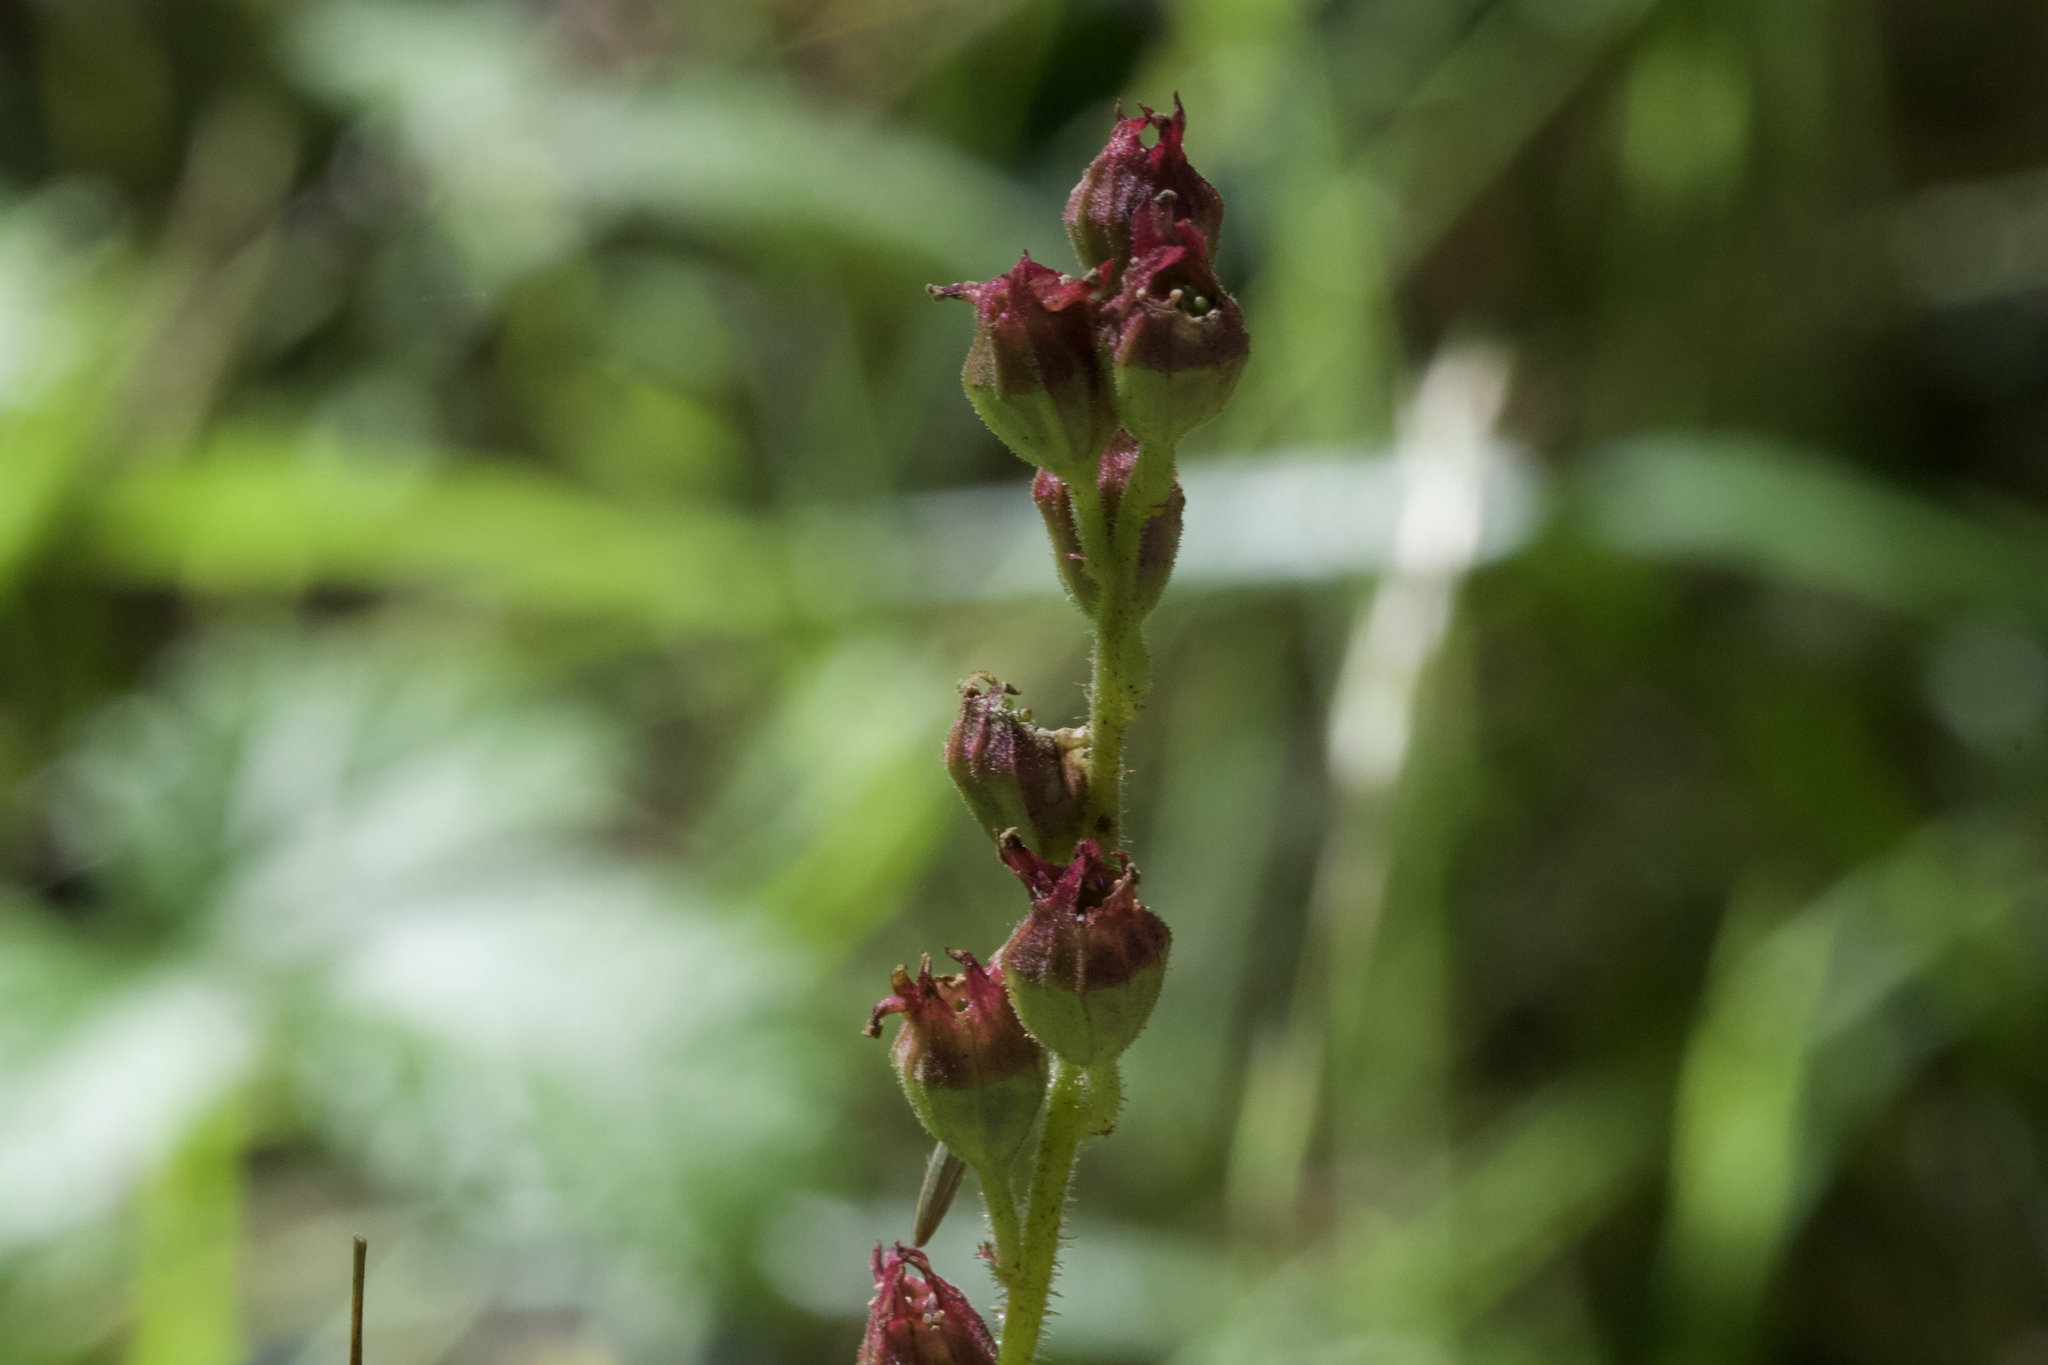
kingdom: Plantae
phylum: Tracheophyta
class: Magnoliopsida
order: Saxifragales
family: Saxifragaceae
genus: Tellima
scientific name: Tellima grandiflora
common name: Fringecups
